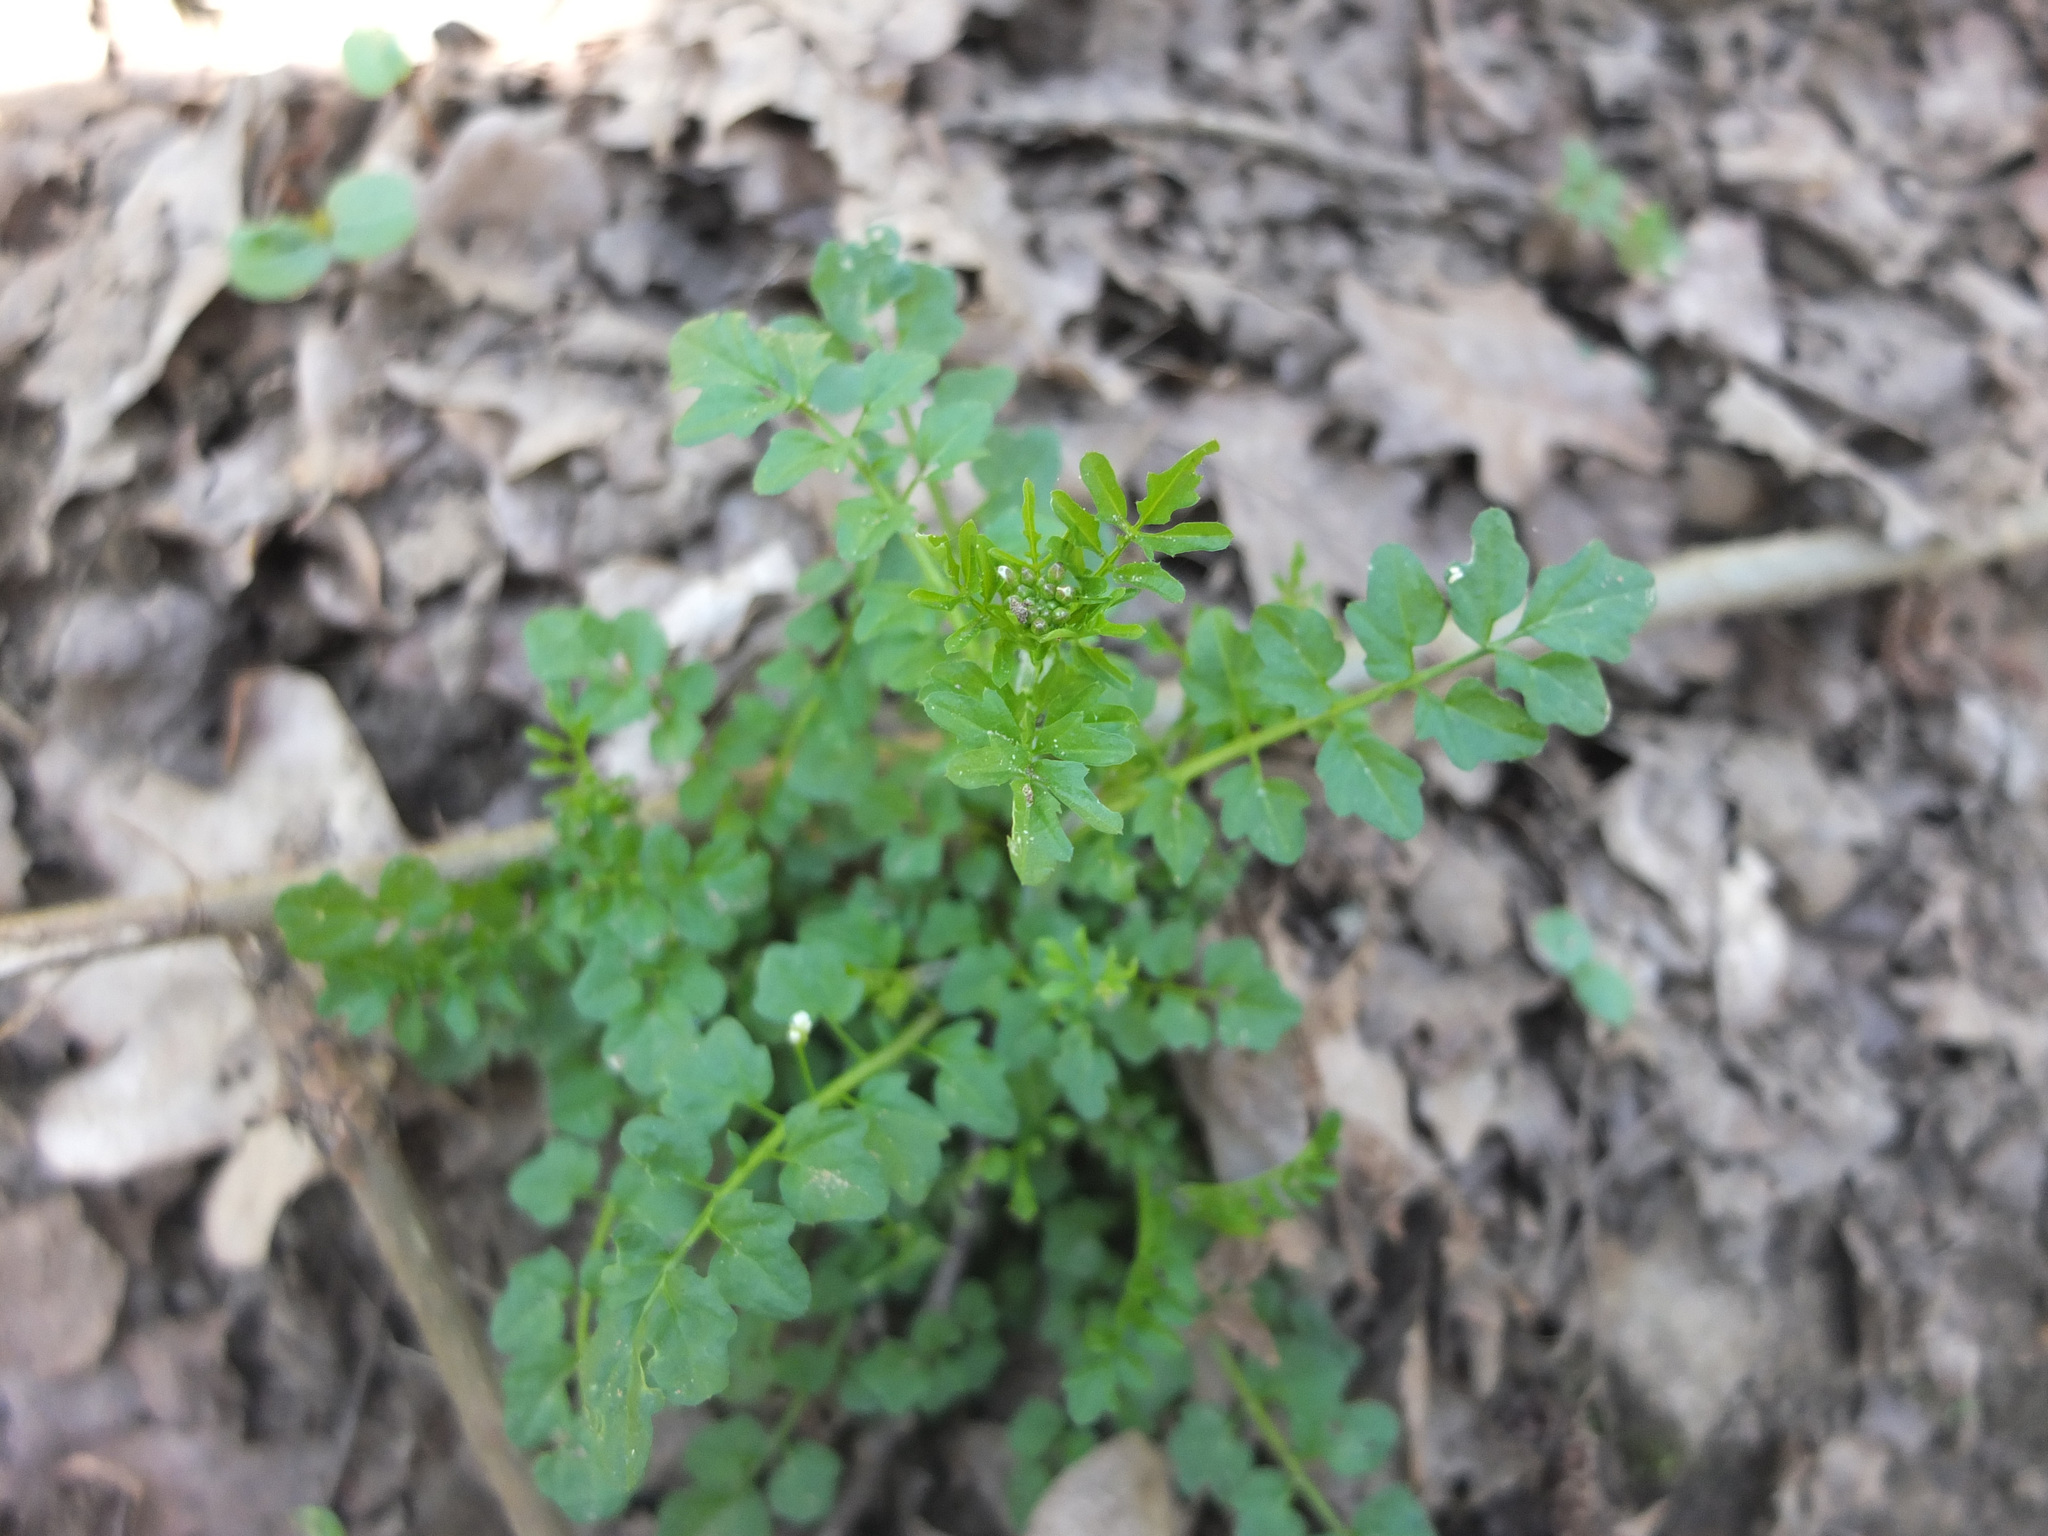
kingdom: Plantae
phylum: Tracheophyta
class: Magnoliopsida
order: Brassicales
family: Brassicaceae
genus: Cardamine
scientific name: Cardamine flexuosa
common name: Woodland bittercress
